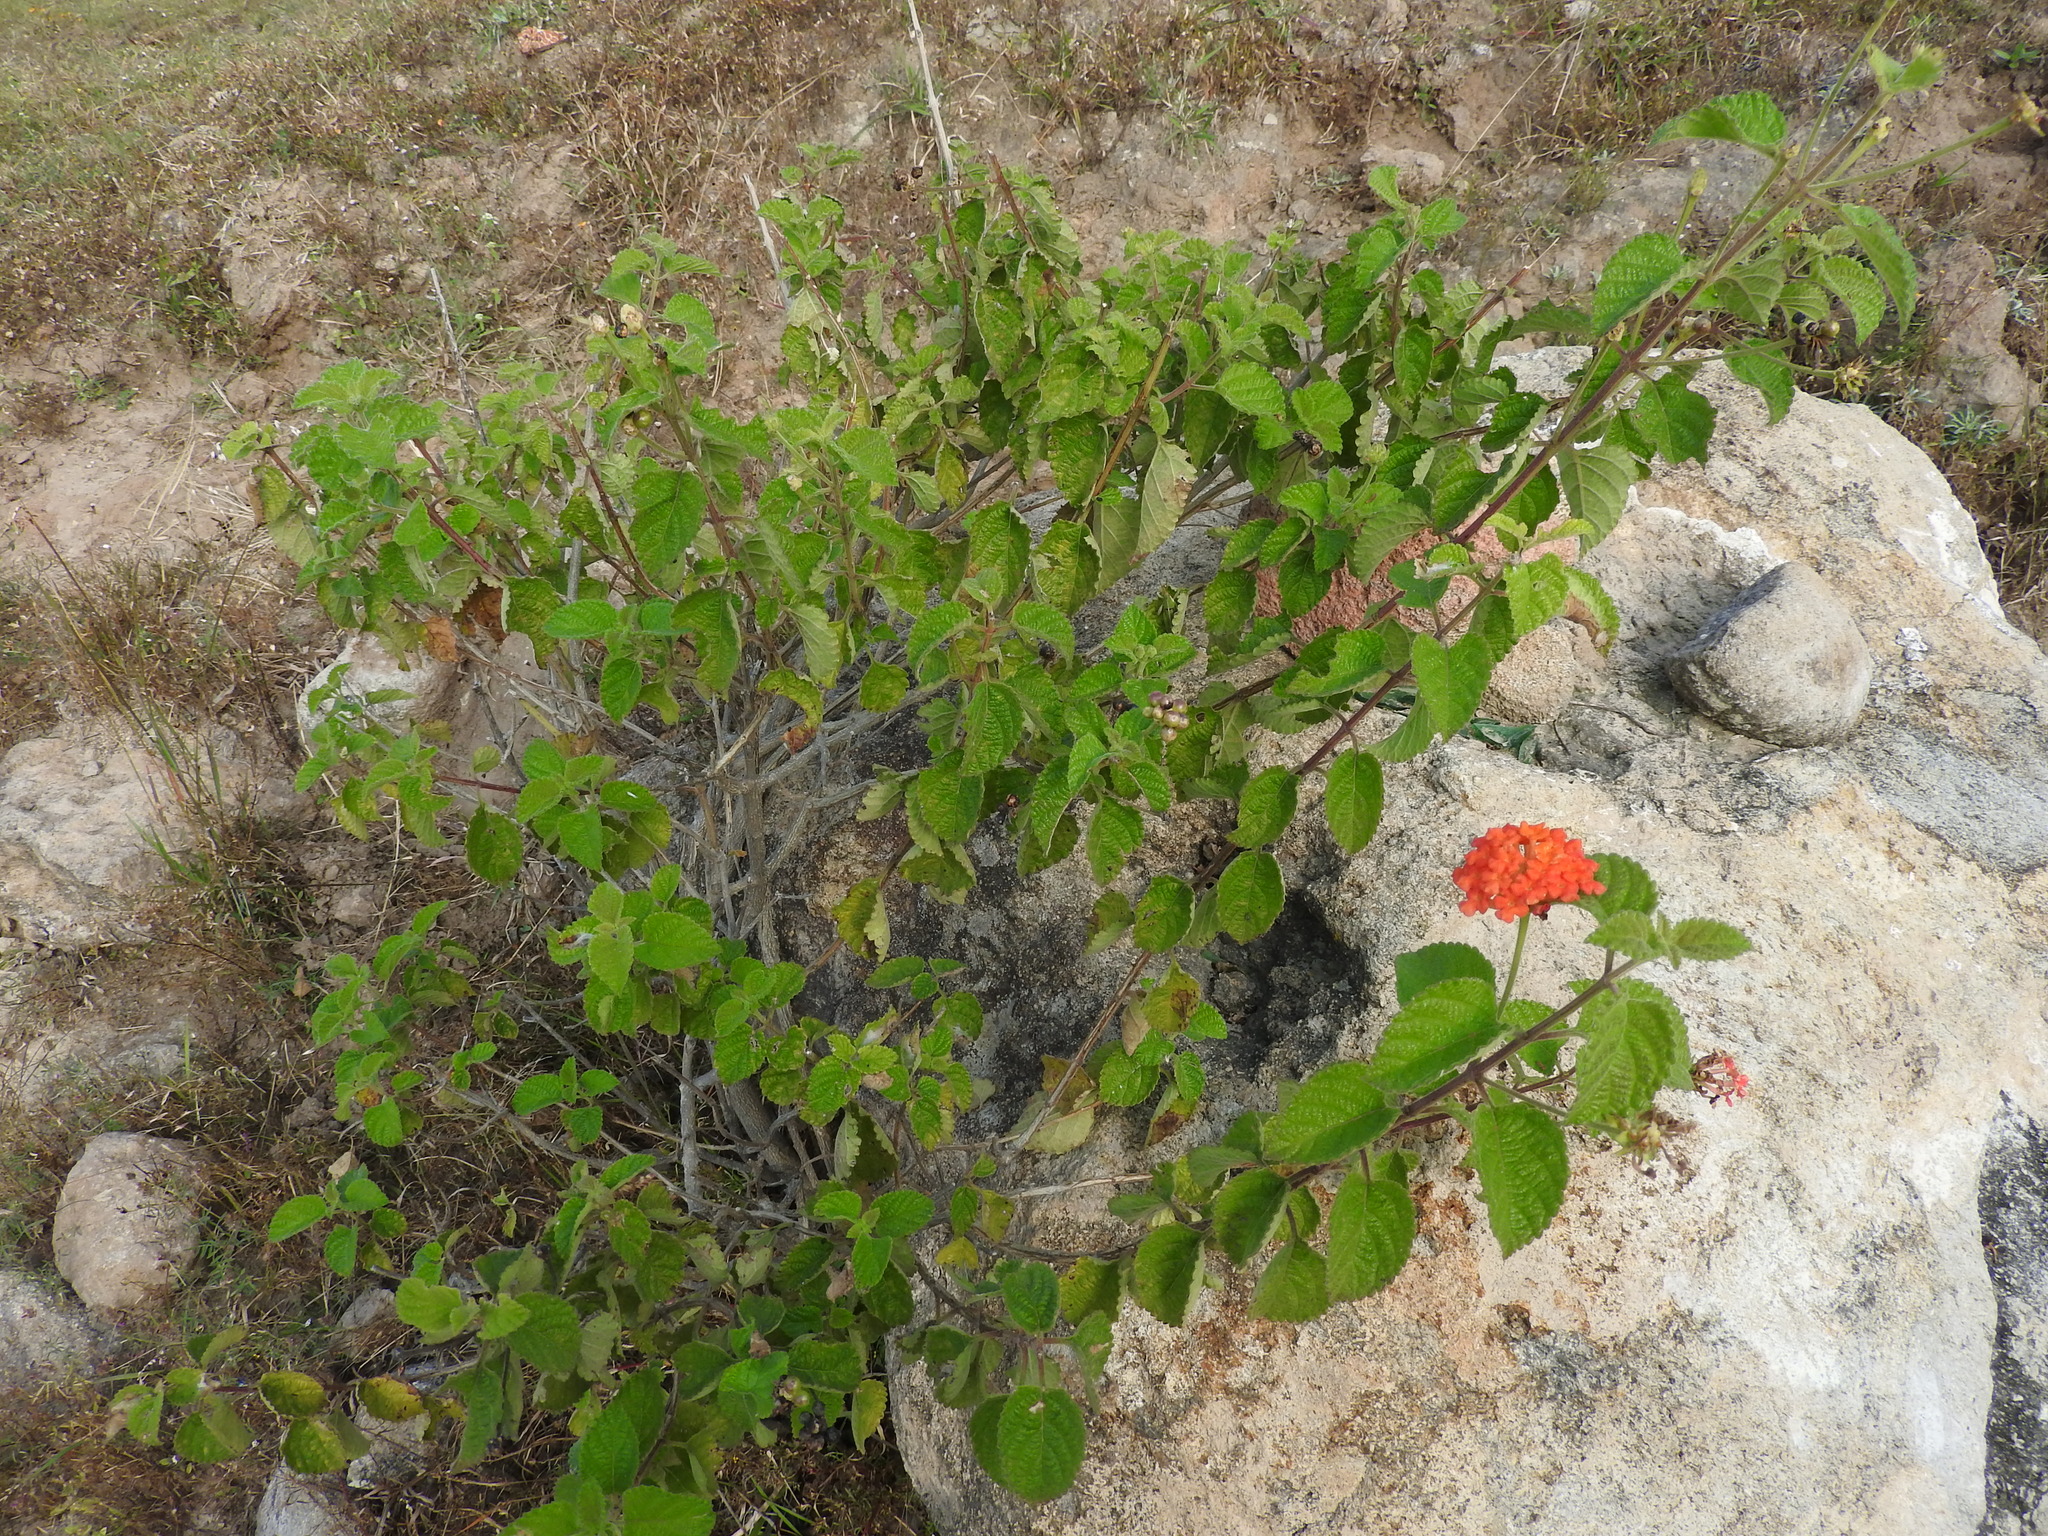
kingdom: Plantae
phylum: Tracheophyta
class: Magnoliopsida
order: Lamiales
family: Verbenaceae
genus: Lantana
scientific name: Lantana camara
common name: Lantana
